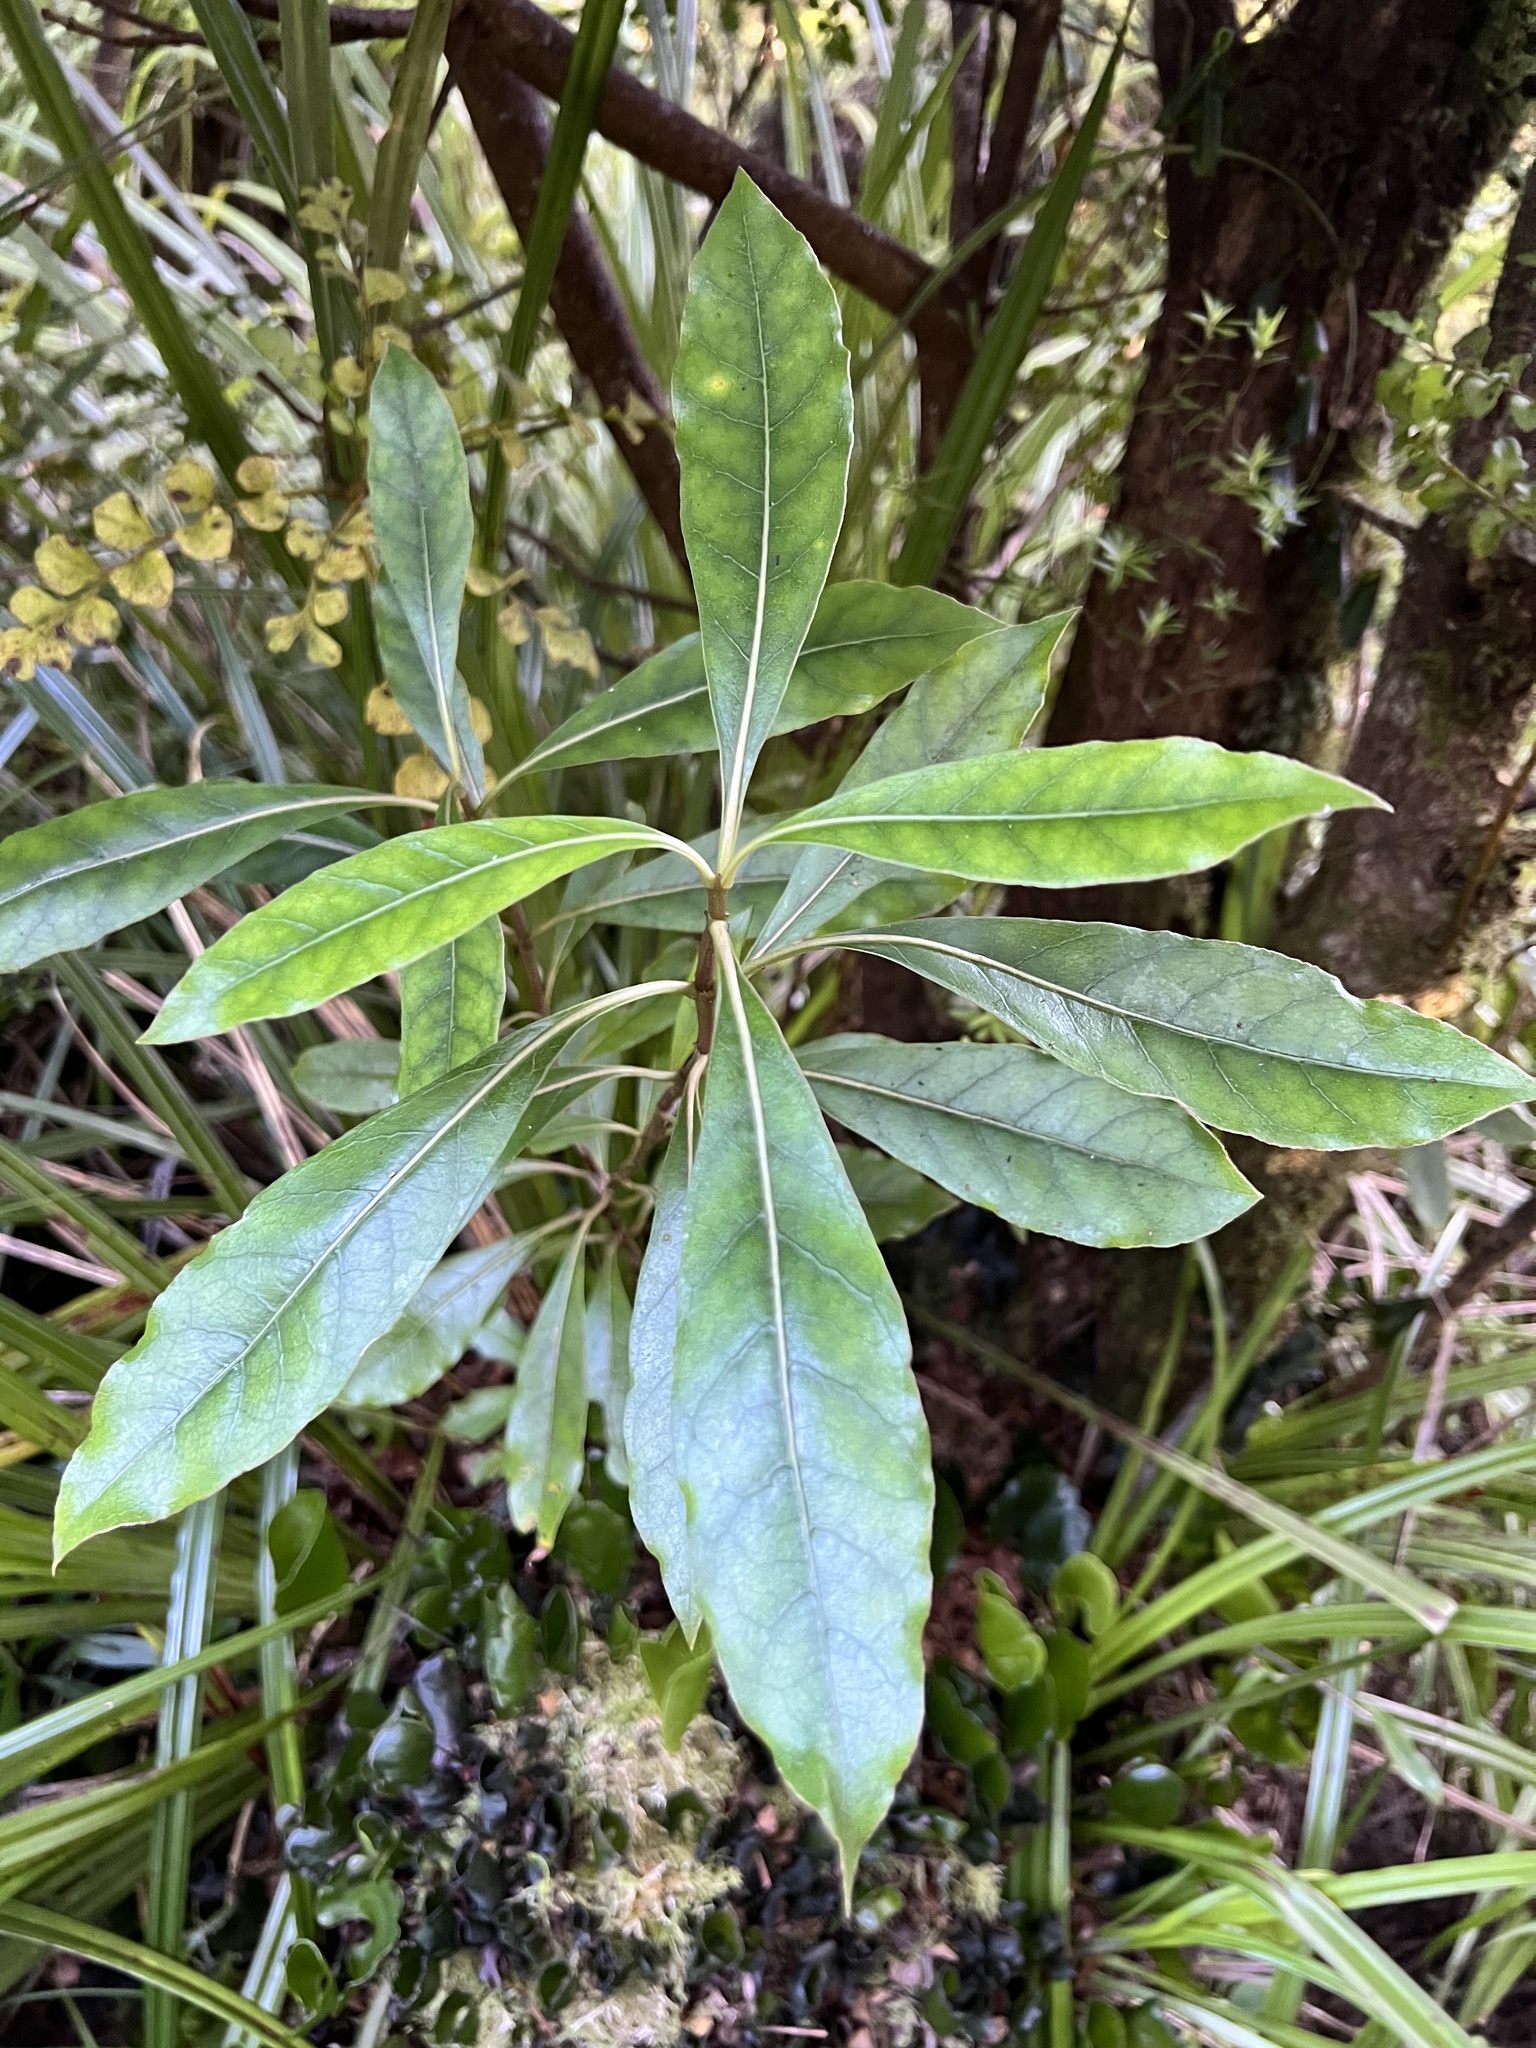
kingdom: Plantae
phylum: Tracheophyta
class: Magnoliopsida
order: Gentianales
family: Rubiaceae
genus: Coprosma
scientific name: Coprosma dodonaeifolia
